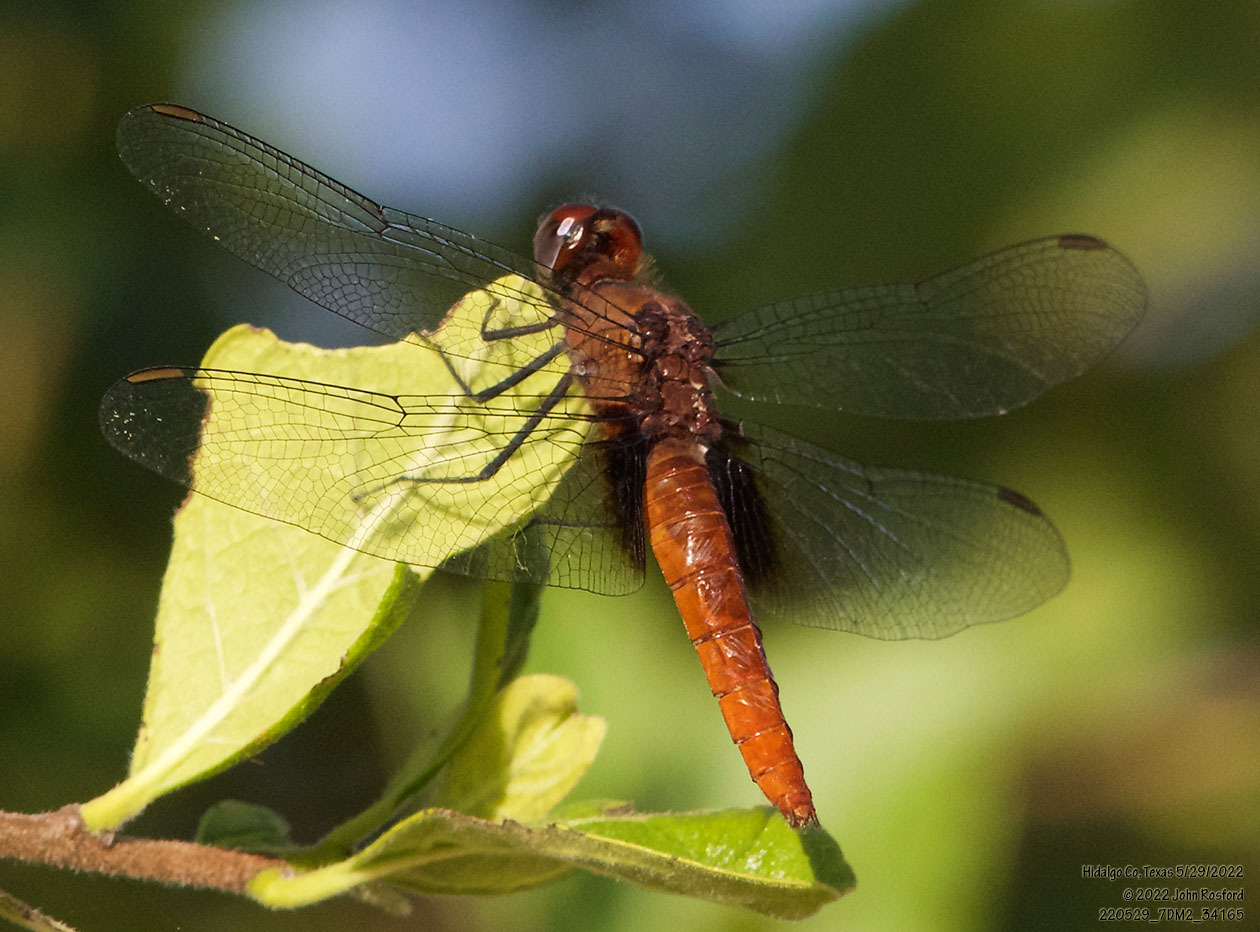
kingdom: Animalia
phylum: Arthropoda
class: Insecta
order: Odonata
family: Libellulidae
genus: Planiplax
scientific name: Planiplax sanguiniventris
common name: Mexican scarlet-tail
